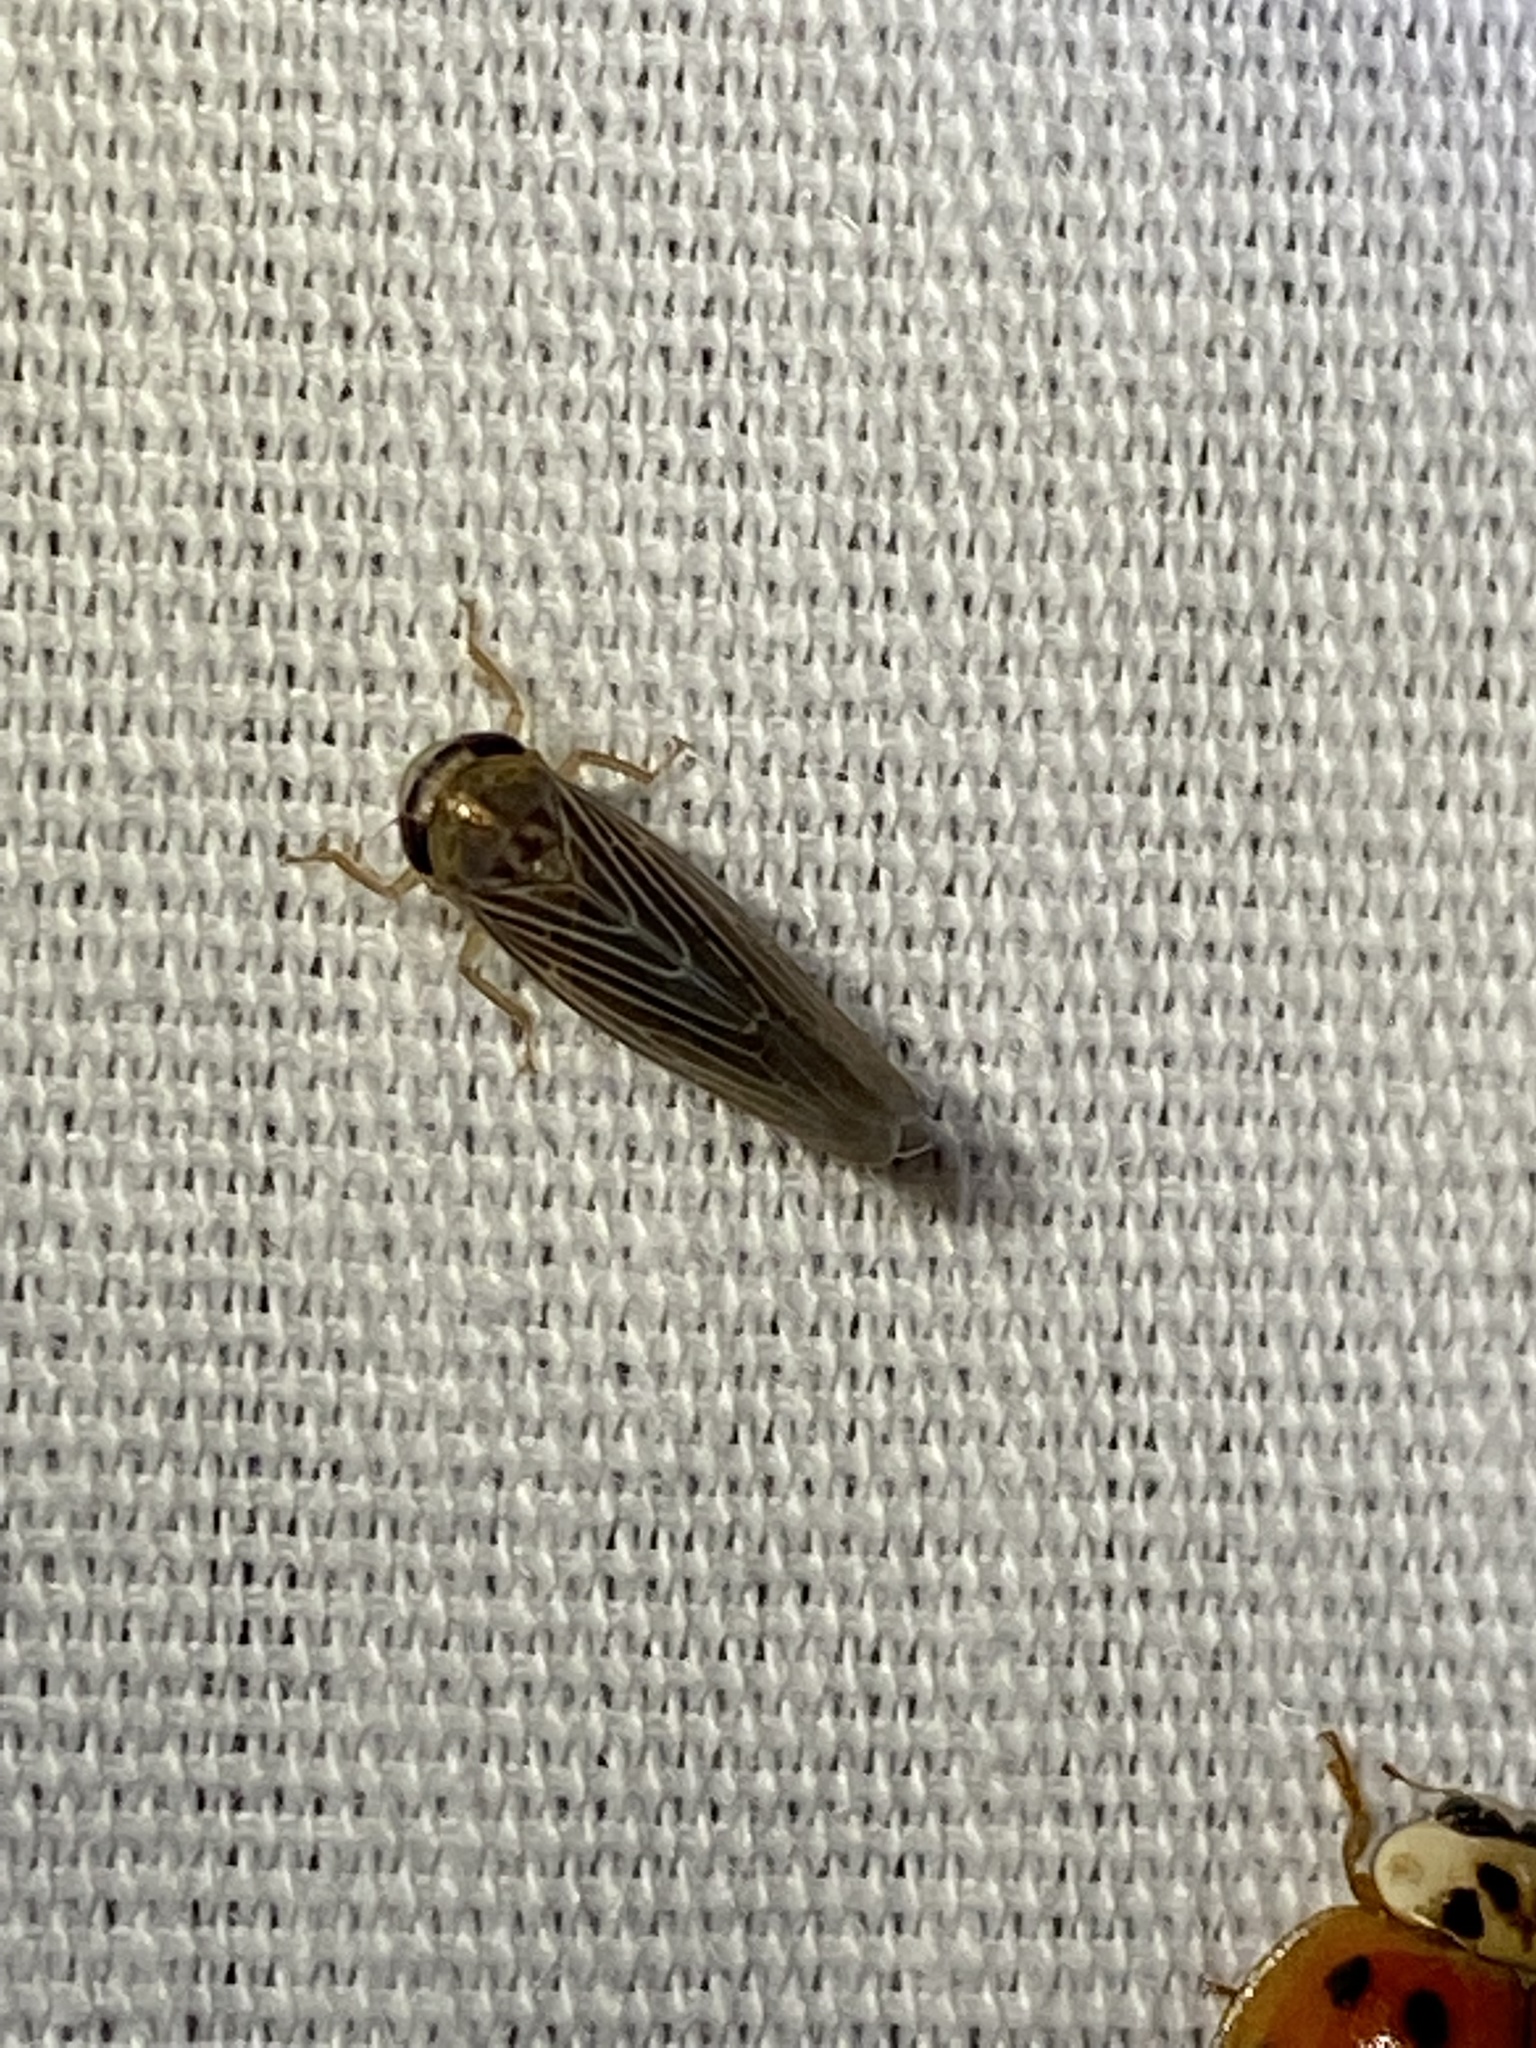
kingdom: Animalia
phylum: Arthropoda
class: Insecta
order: Hemiptera
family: Cicadellidae
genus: Chlorotettix
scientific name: Chlorotettix necopinus
